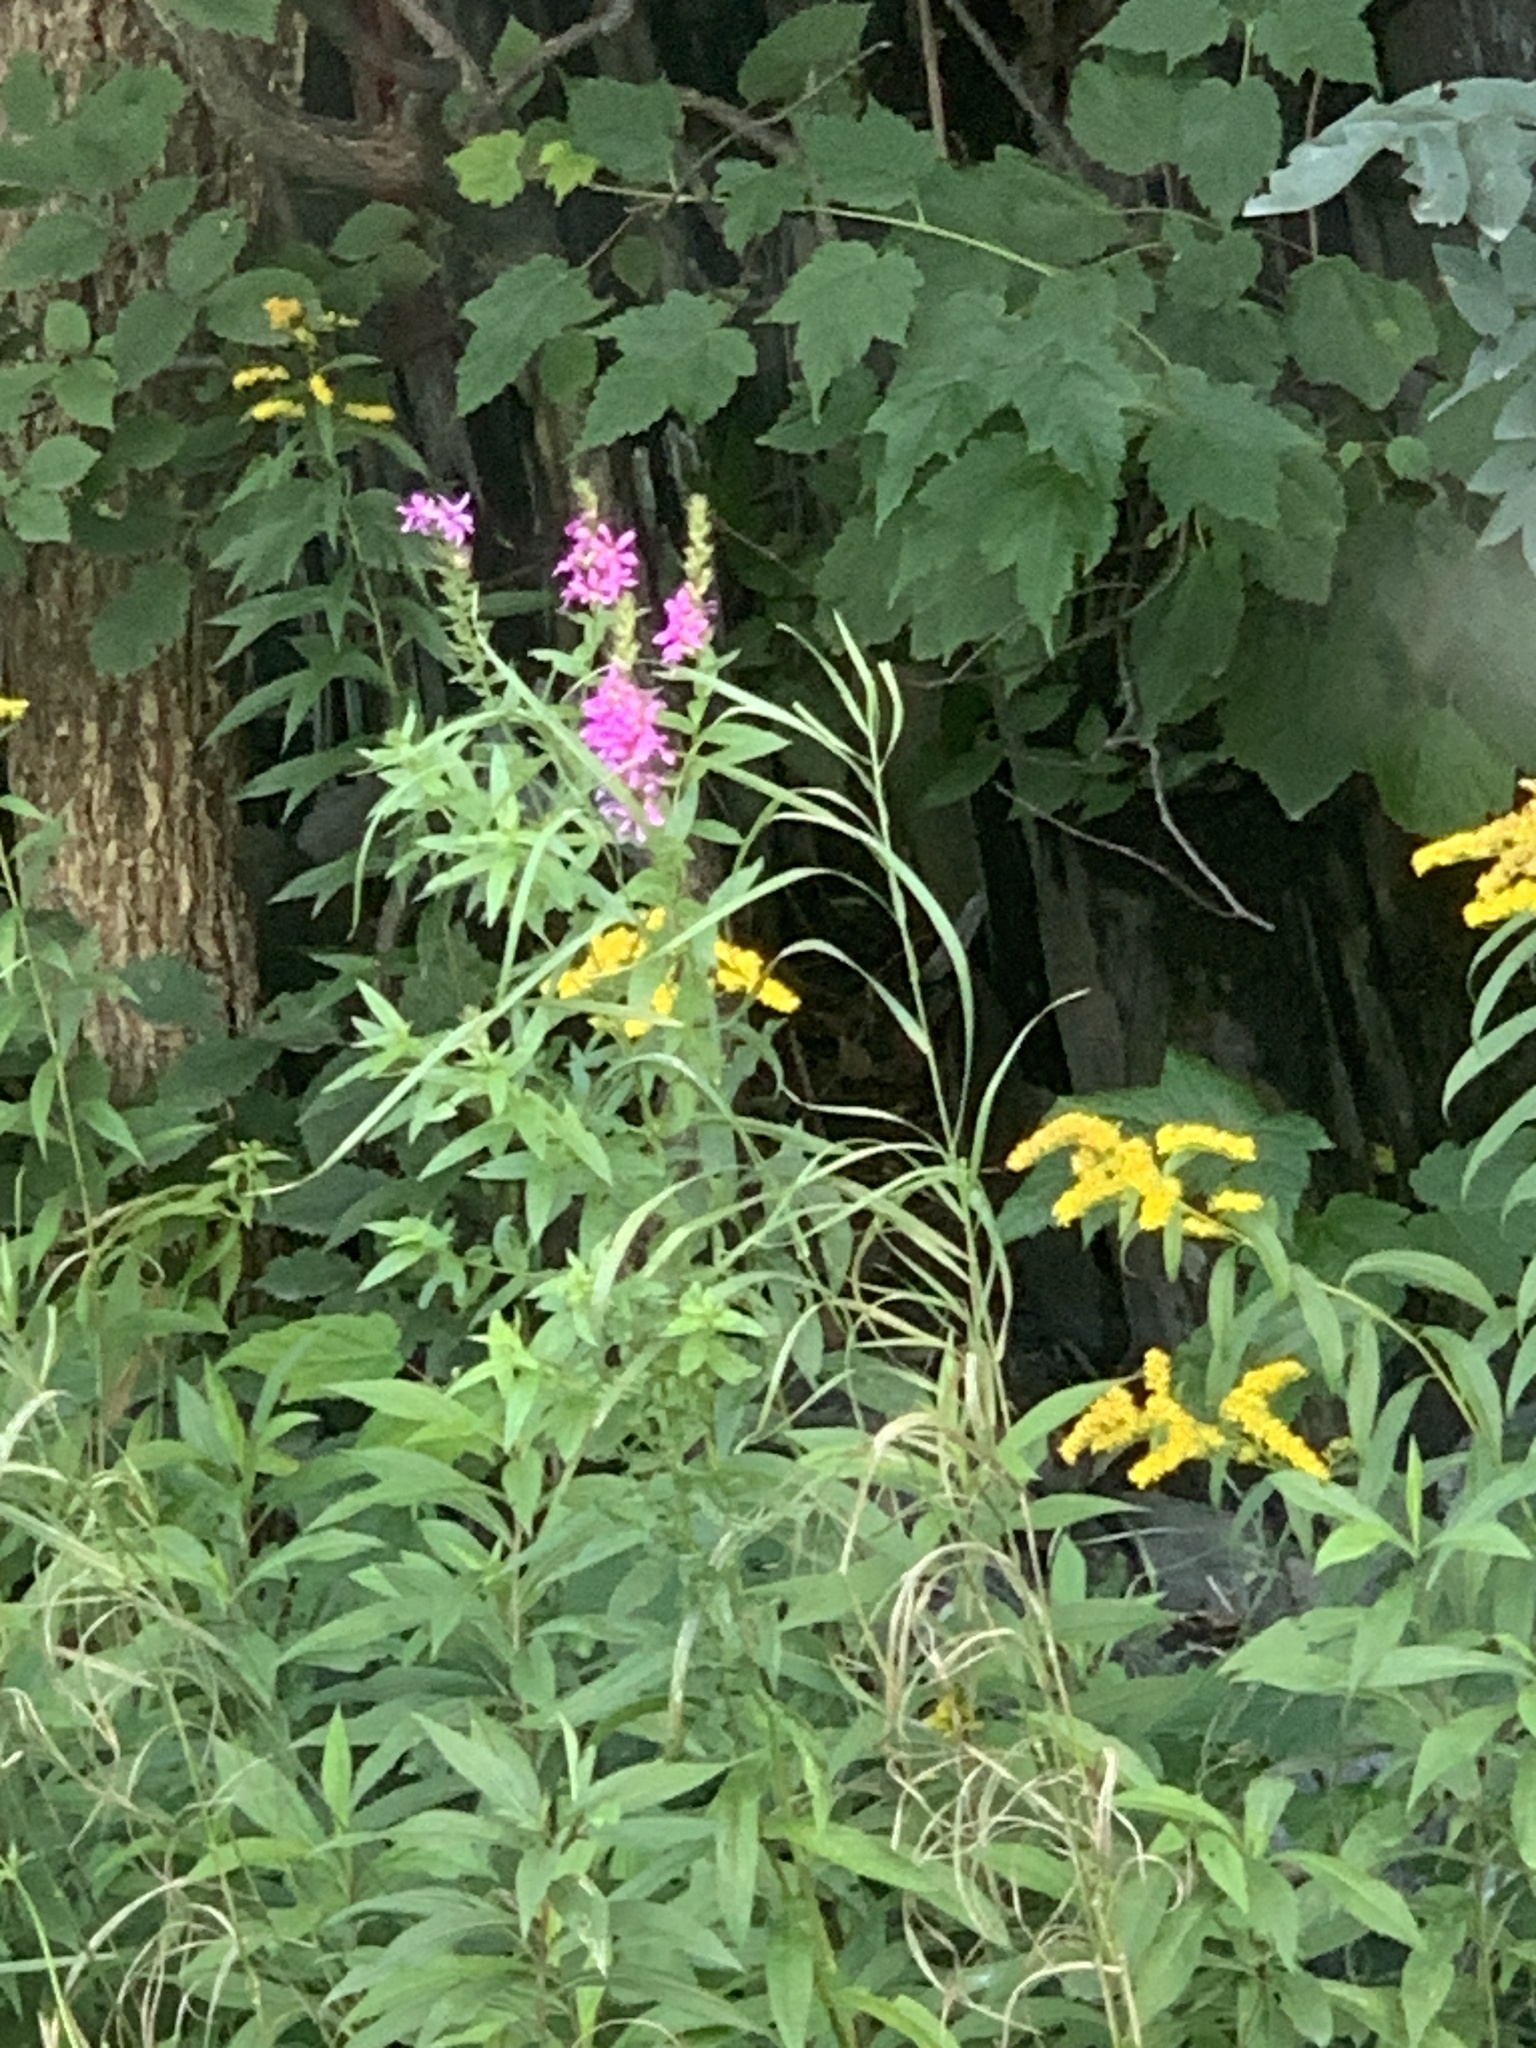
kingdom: Plantae
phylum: Tracheophyta
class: Magnoliopsida
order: Myrtales
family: Lythraceae
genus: Lythrum
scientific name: Lythrum salicaria
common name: Purple loosestrife
